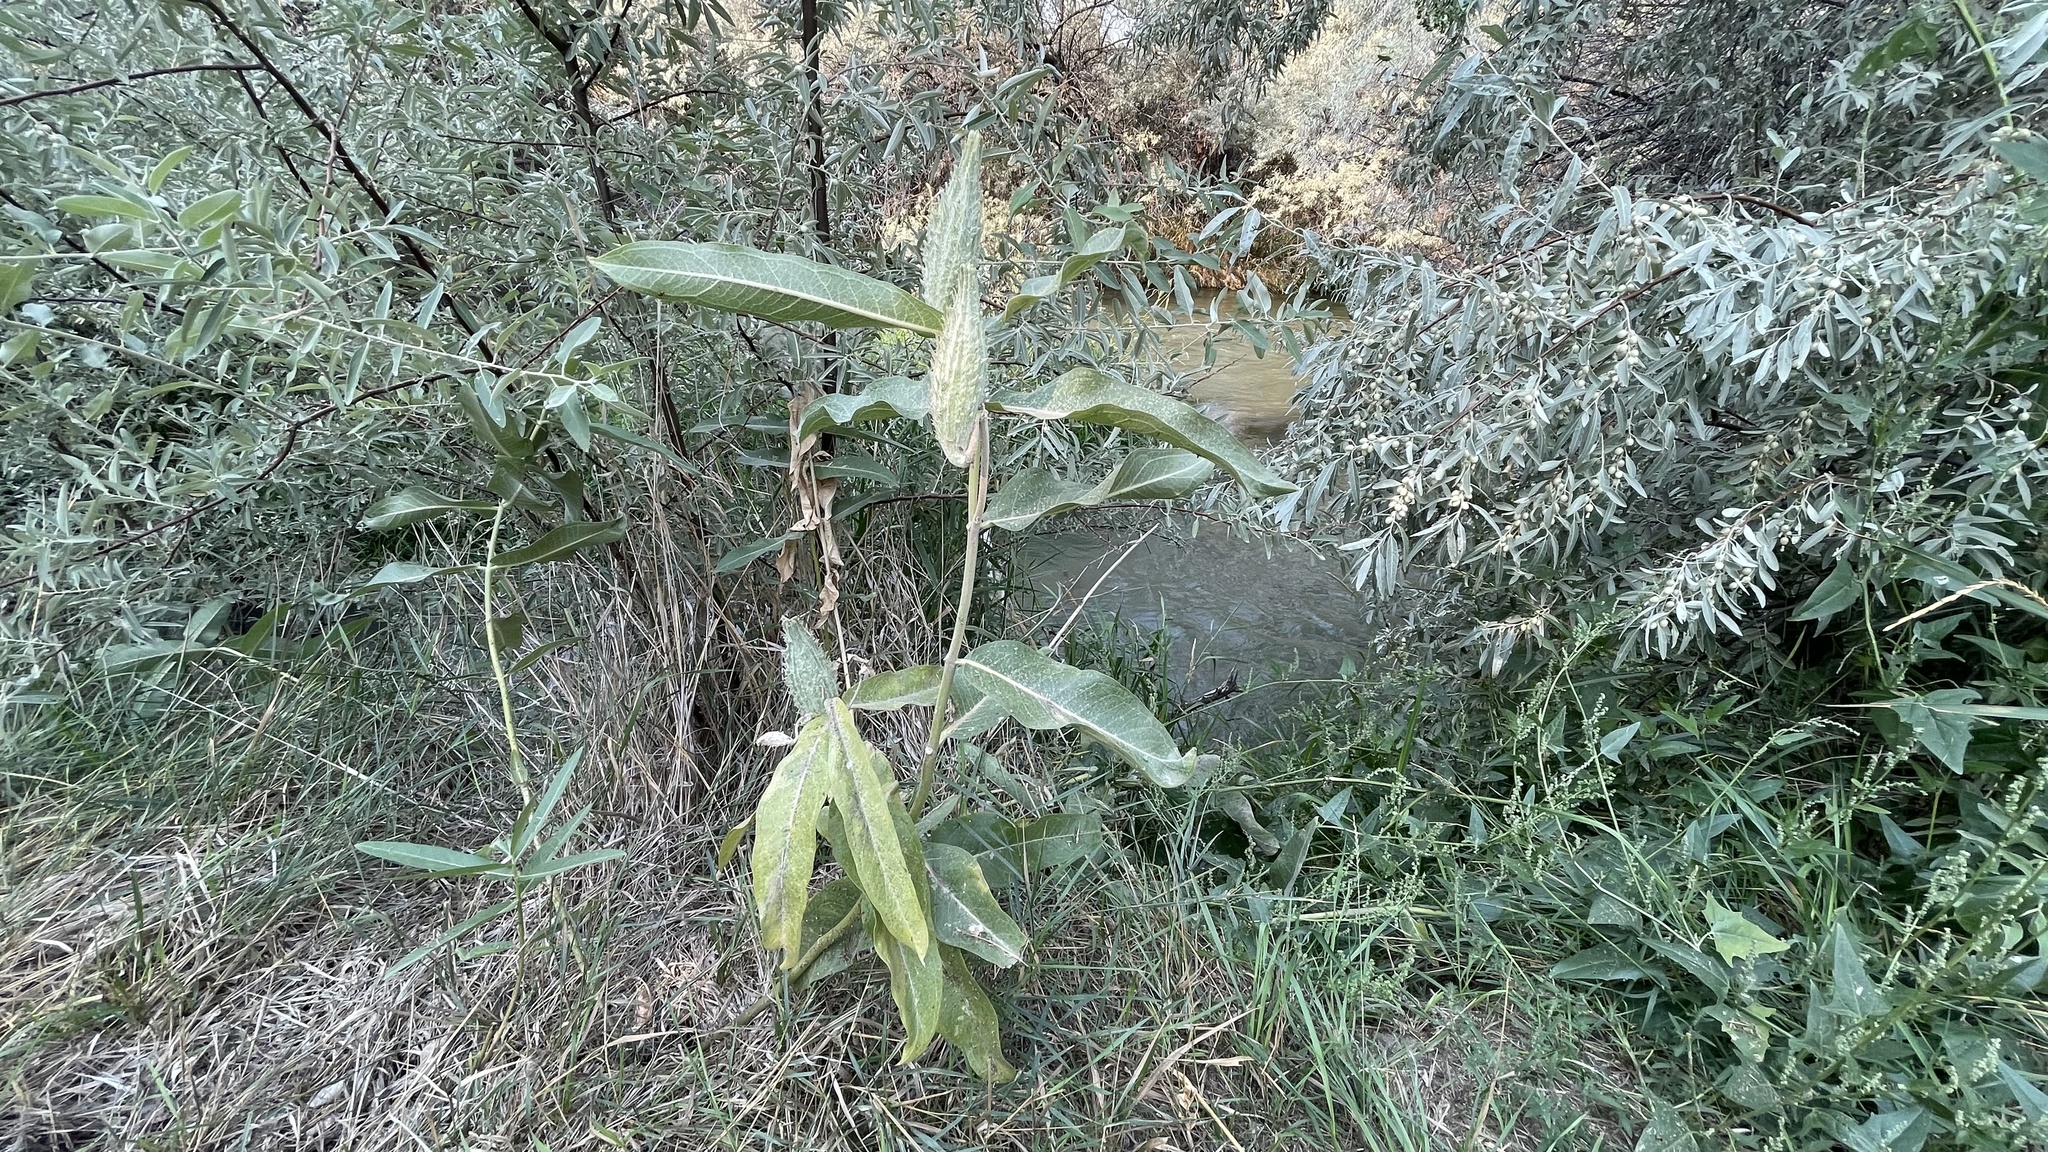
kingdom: Plantae
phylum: Tracheophyta
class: Magnoliopsida
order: Gentianales
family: Apocynaceae
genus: Asclepias
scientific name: Asclepias speciosa
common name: Showy milkweed
